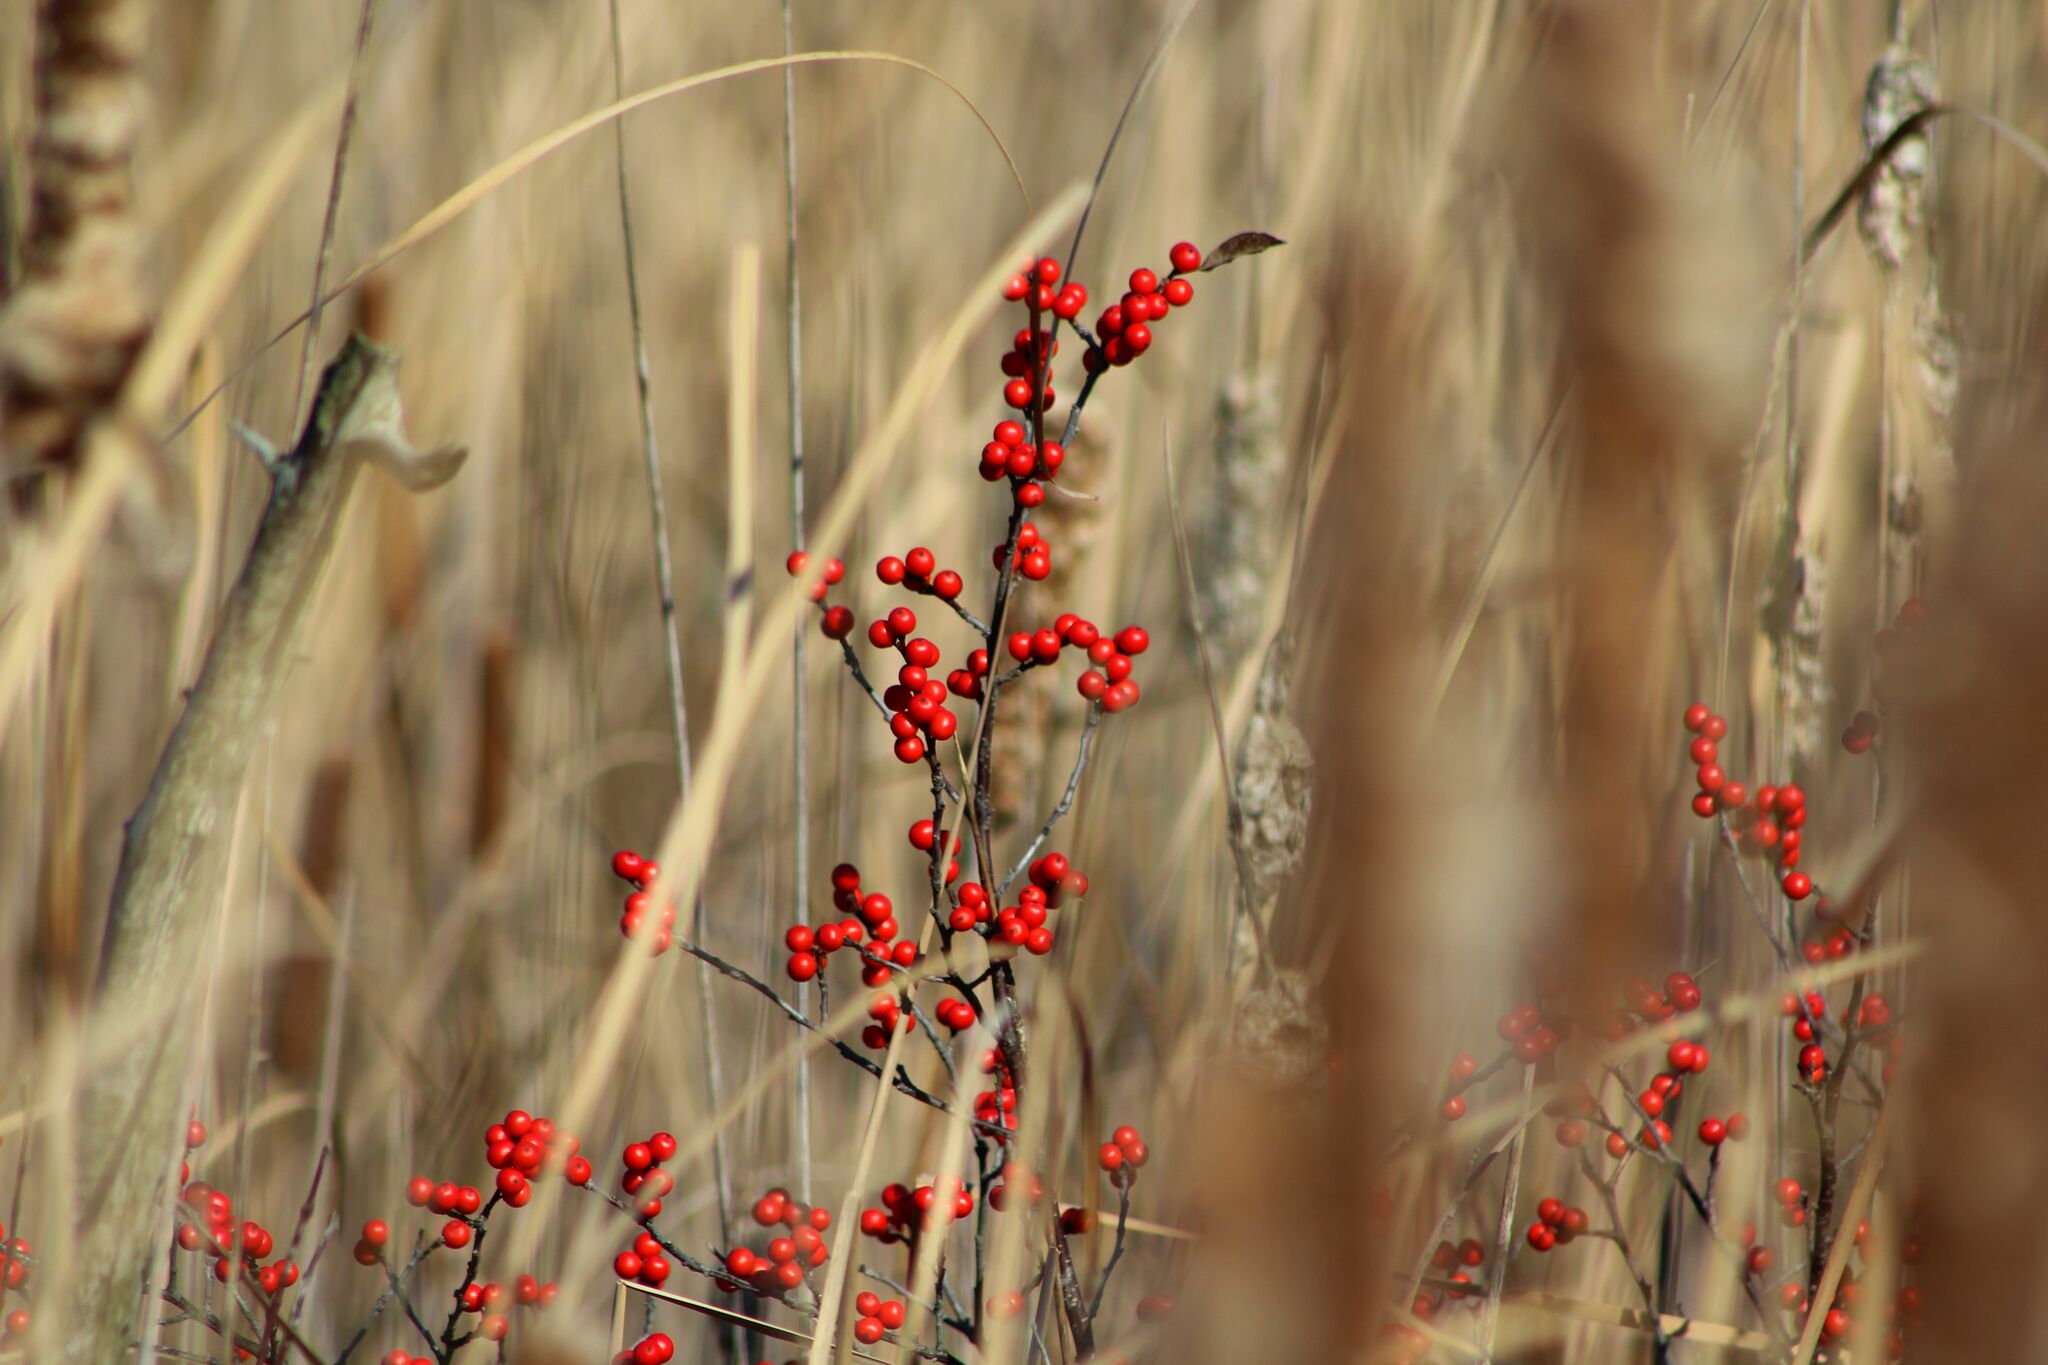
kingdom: Plantae
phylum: Tracheophyta
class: Magnoliopsida
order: Aquifoliales
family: Aquifoliaceae
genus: Ilex
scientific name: Ilex verticillata
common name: Virginia winterberry
